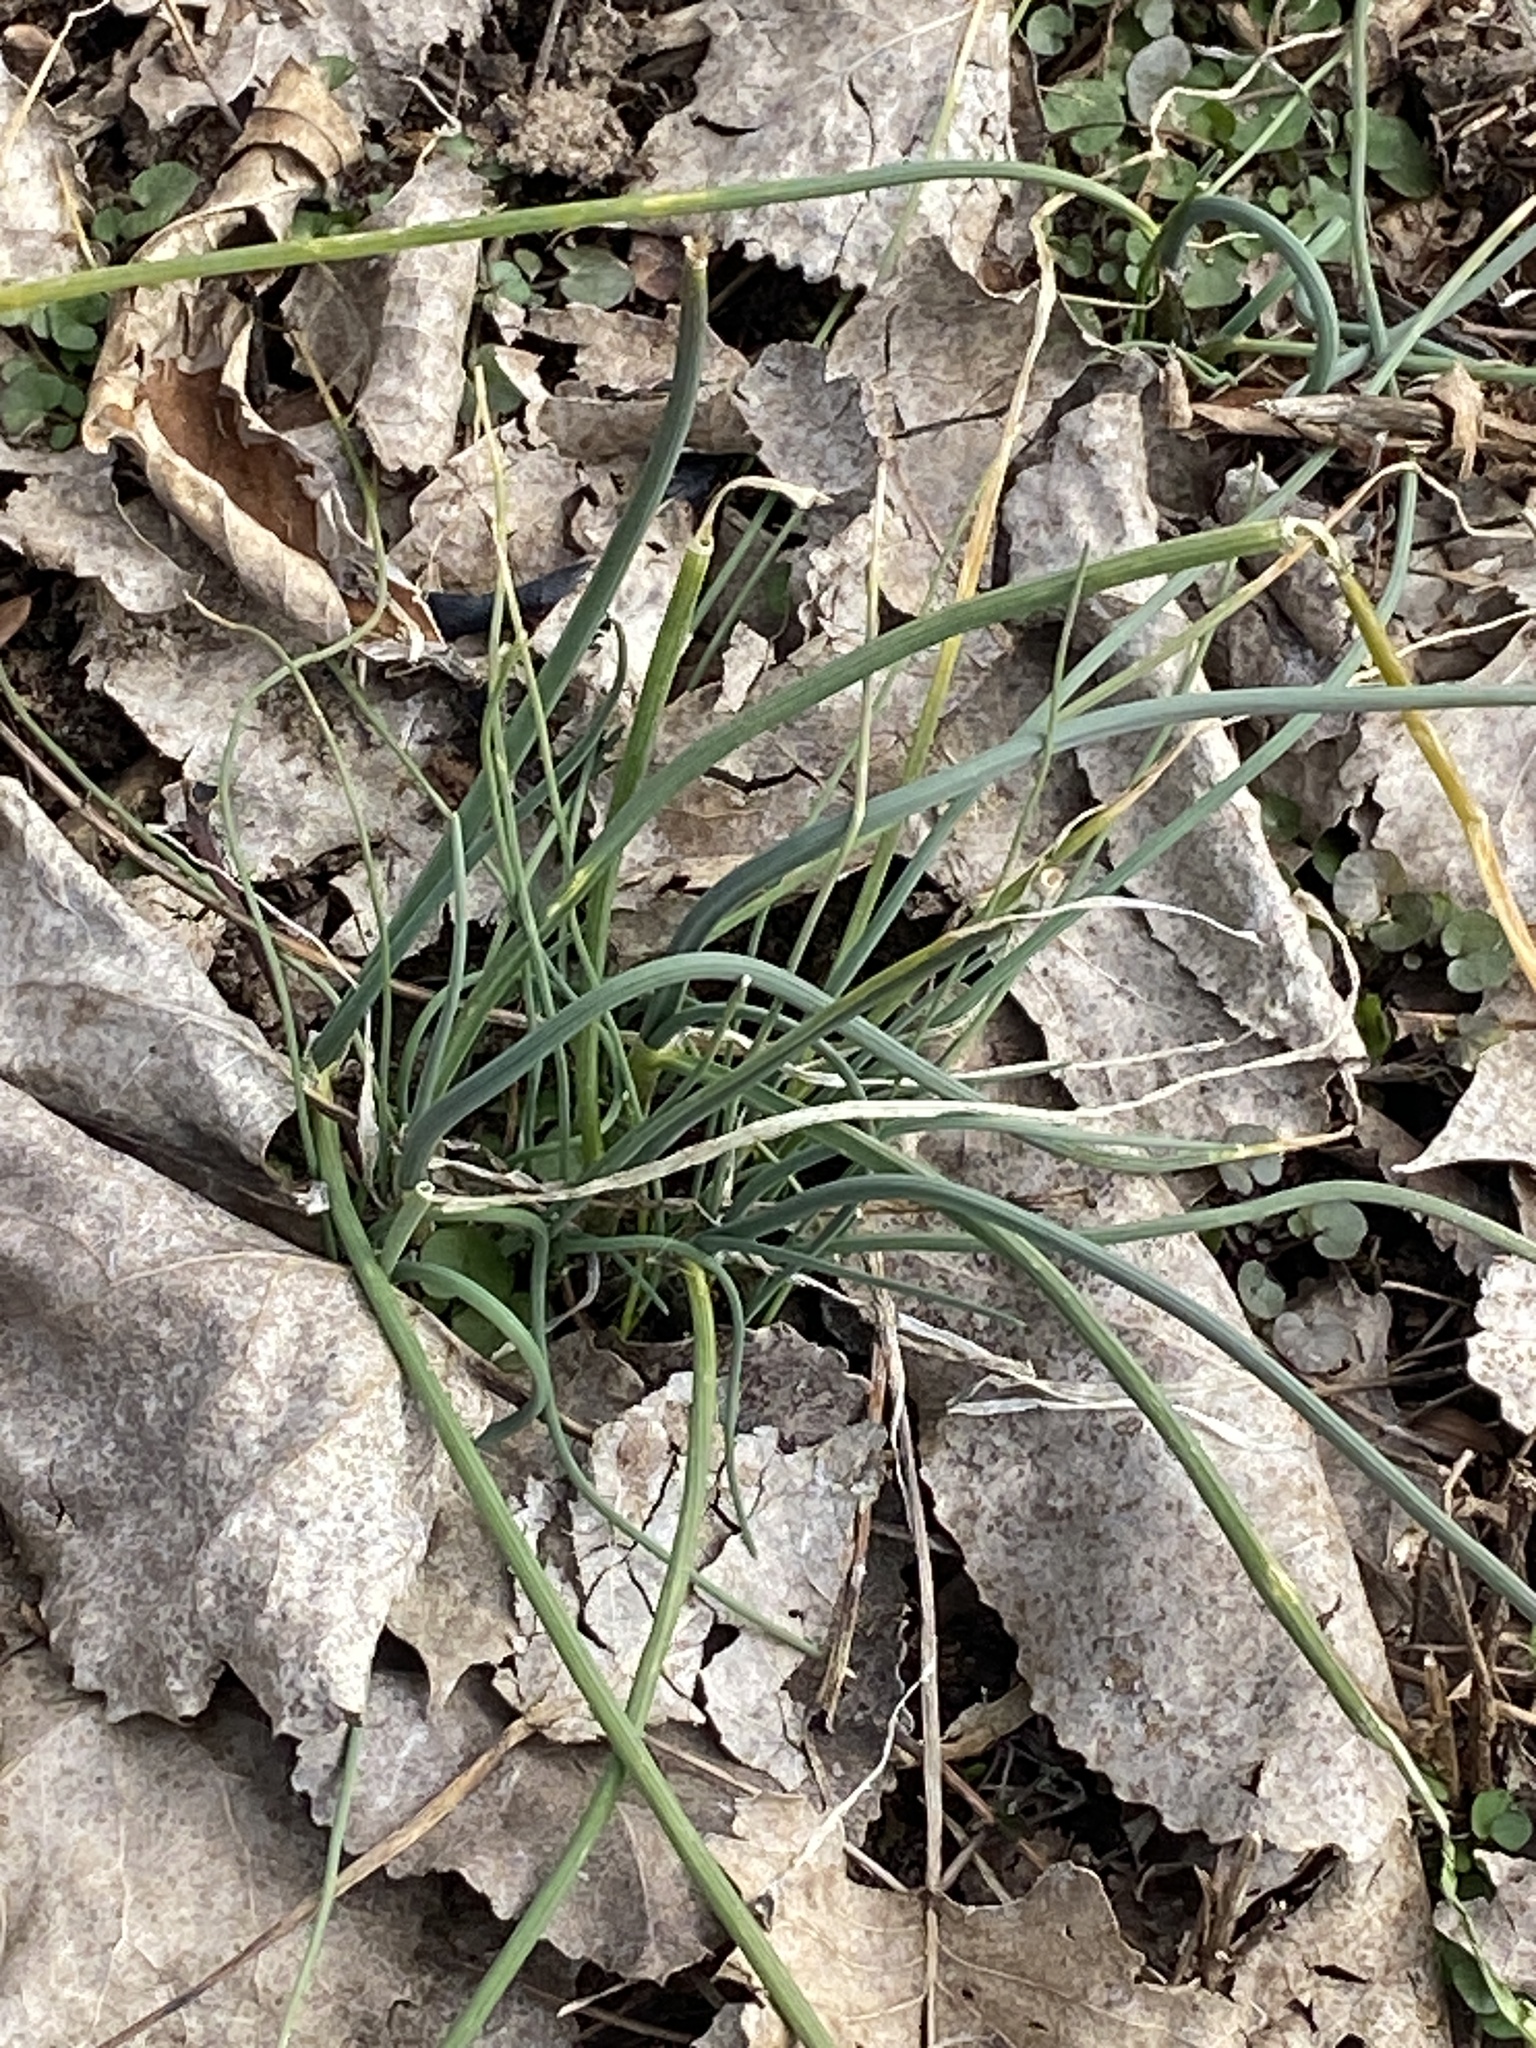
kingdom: Plantae
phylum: Tracheophyta
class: Liliopsida
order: Asparagales
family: Amaryllidaceae
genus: Allium
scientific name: Allium vineale
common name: Crow garlic
